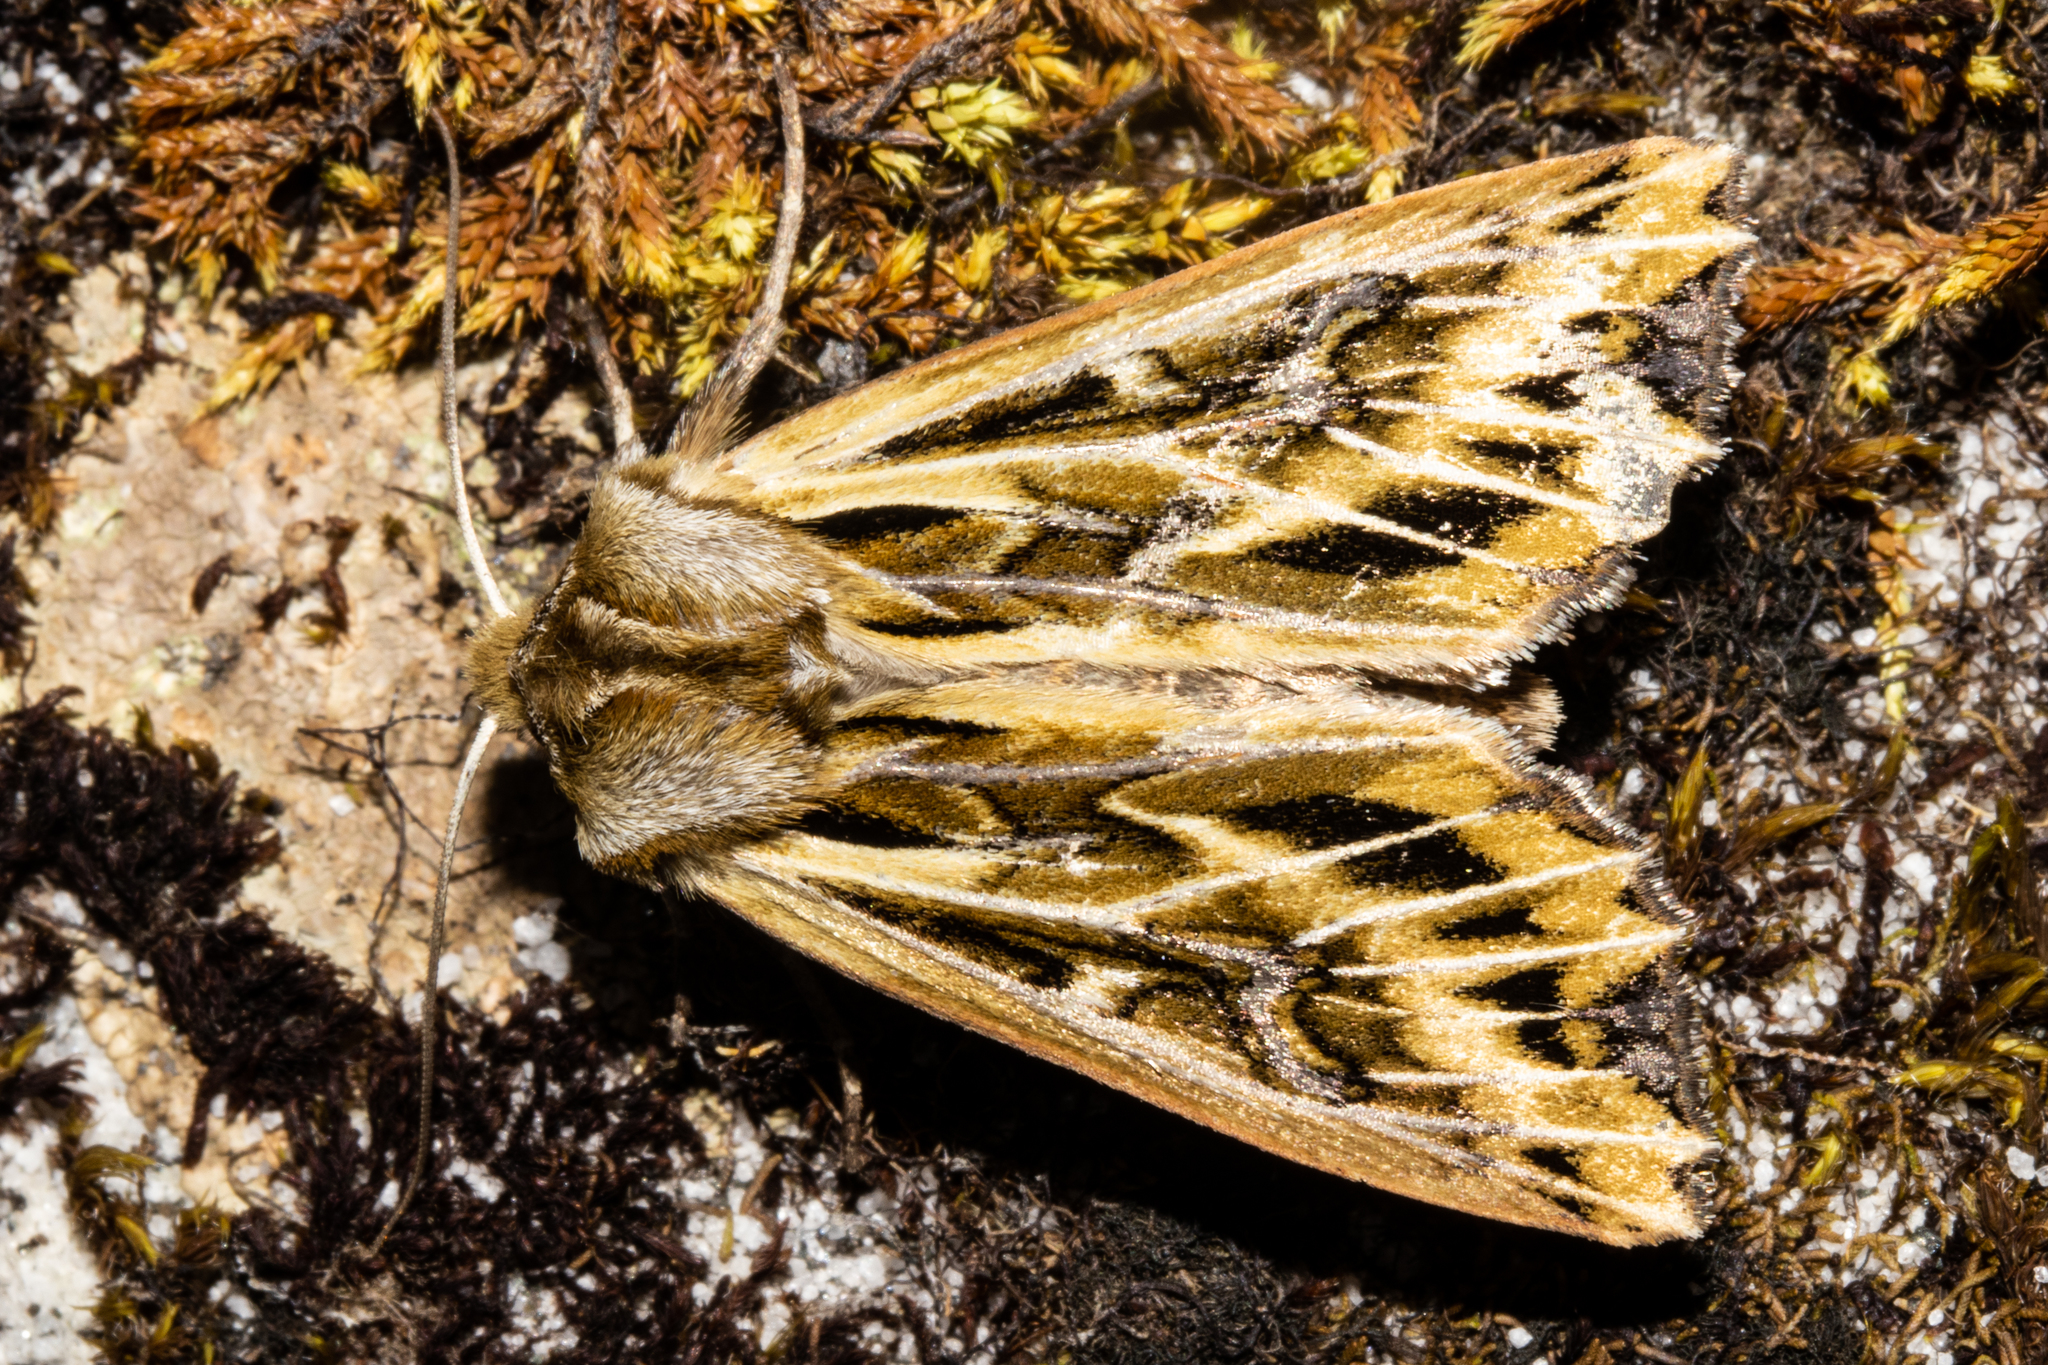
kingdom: Animalia
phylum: Arthropoda
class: Insecta
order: Lepidoptera
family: Noctuidae
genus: Ichneutica
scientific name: Ichneutica
